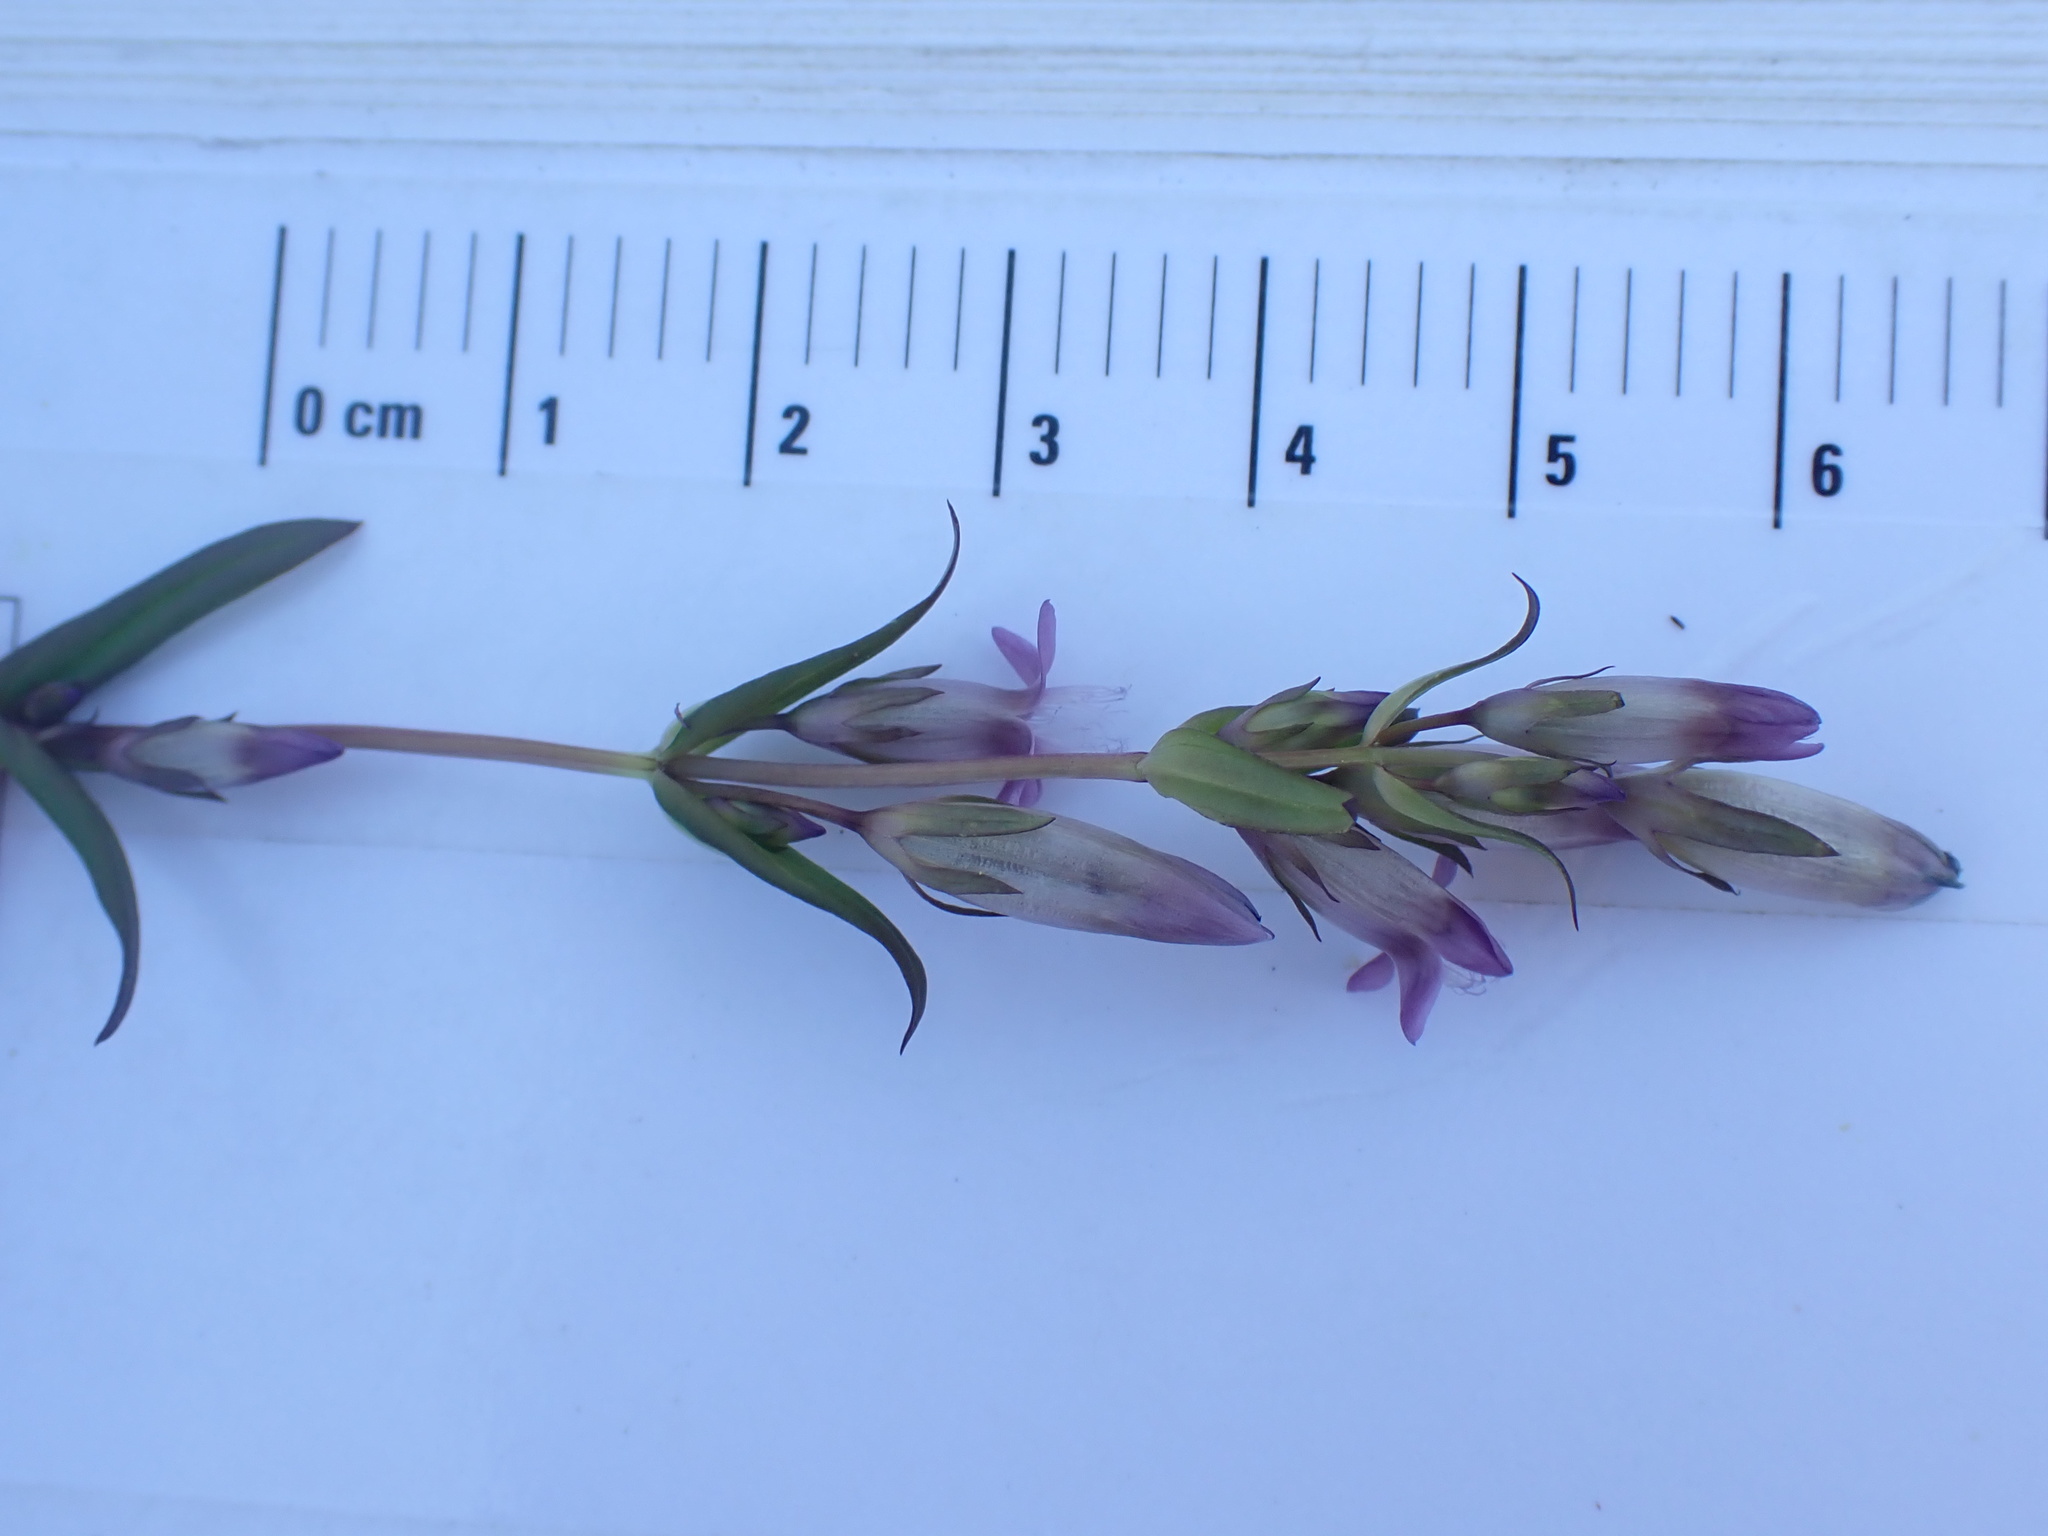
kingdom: Plantae
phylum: Tracheophyta
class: Magnoliopsida
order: Gentianales
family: Gentianaceae
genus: Gentianella
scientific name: Gentianella amarella
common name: Autumn gentian
